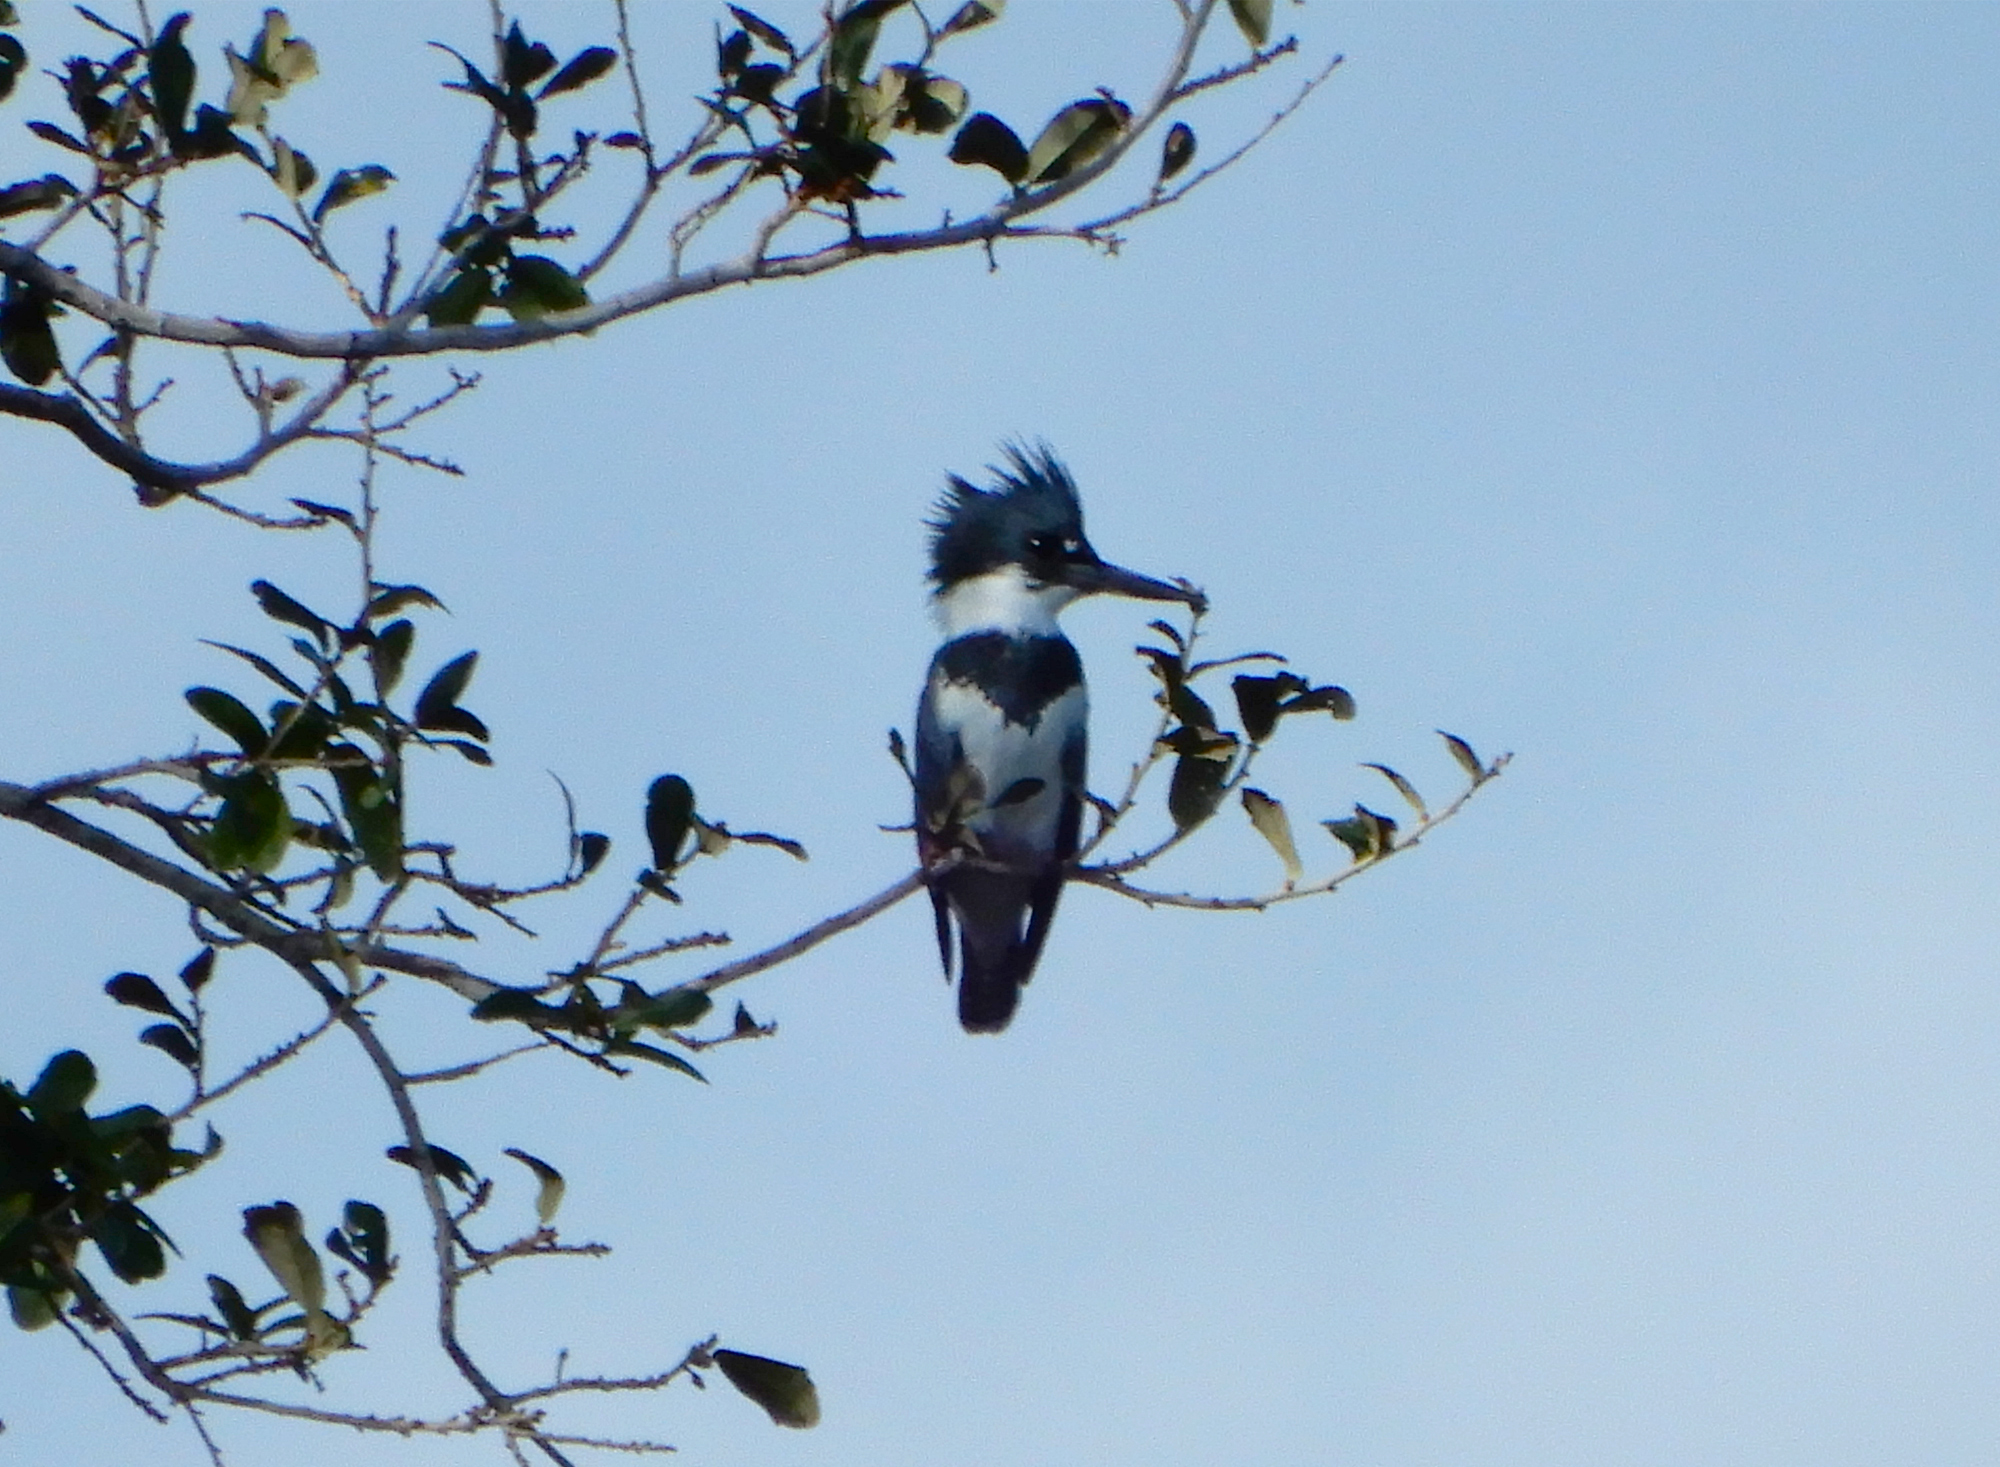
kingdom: Animalia
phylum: Chordata
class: Aves
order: Coraciiformes
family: Alcedinidae
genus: Megaceryle
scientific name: Megaceryle alcyon
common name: Belted kingfisher
